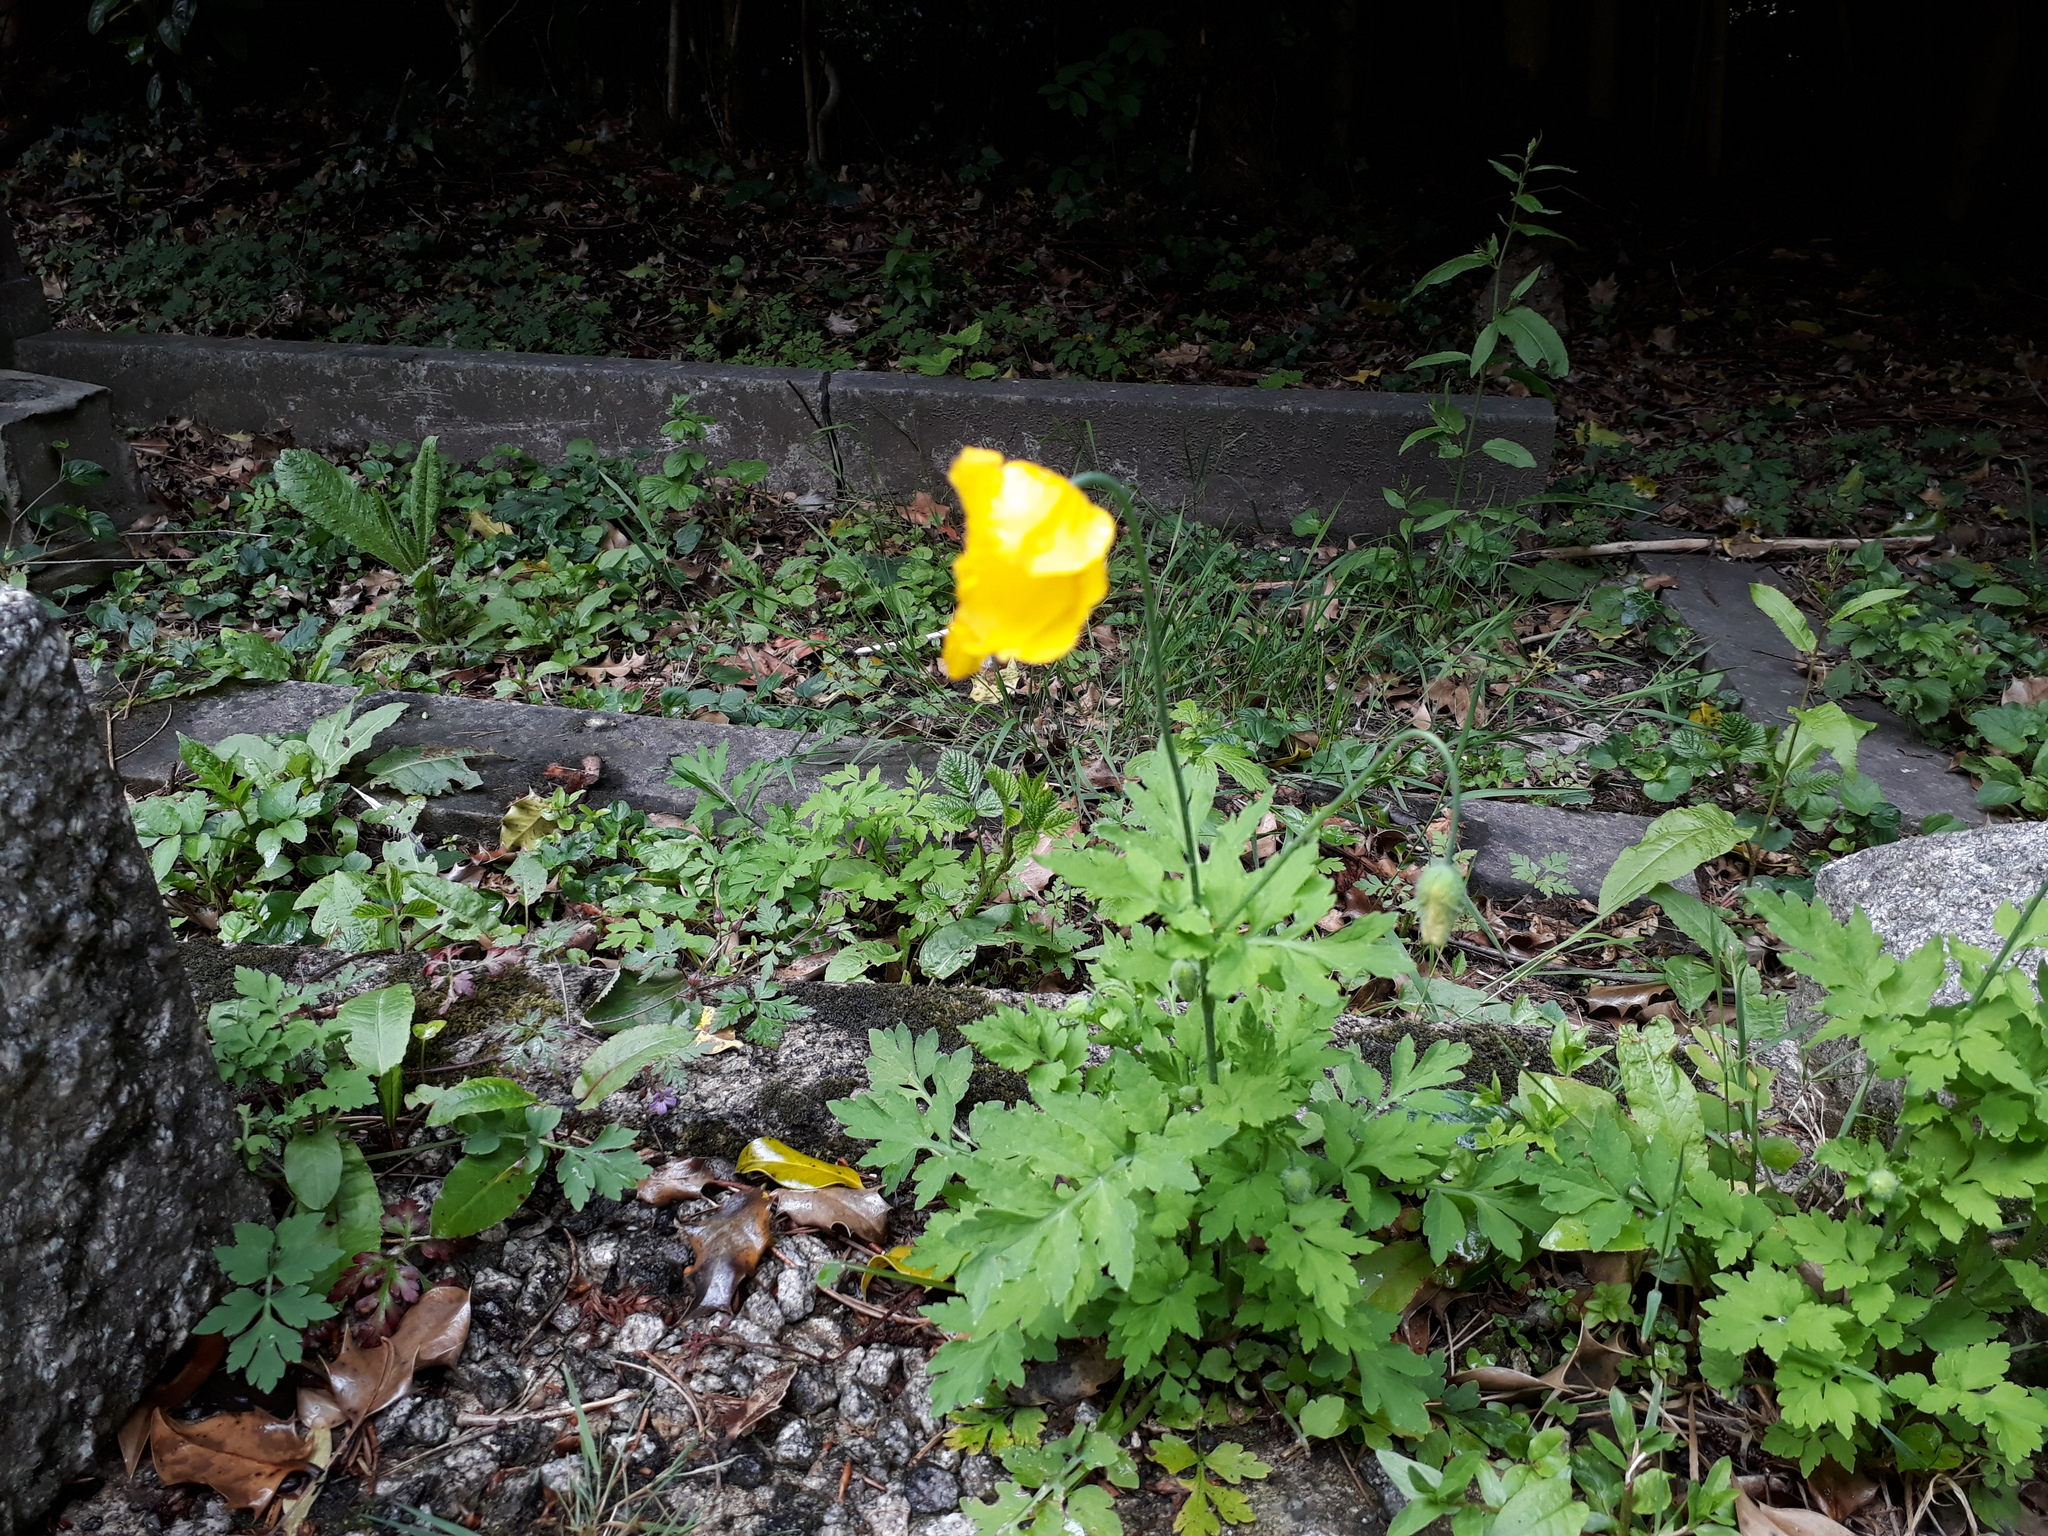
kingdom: Plantae
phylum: Tracheophyta
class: Magnoliopsida
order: Ranunculales
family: Papaveraceae
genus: Papaver
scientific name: Papaver cambricum
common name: Poppy
